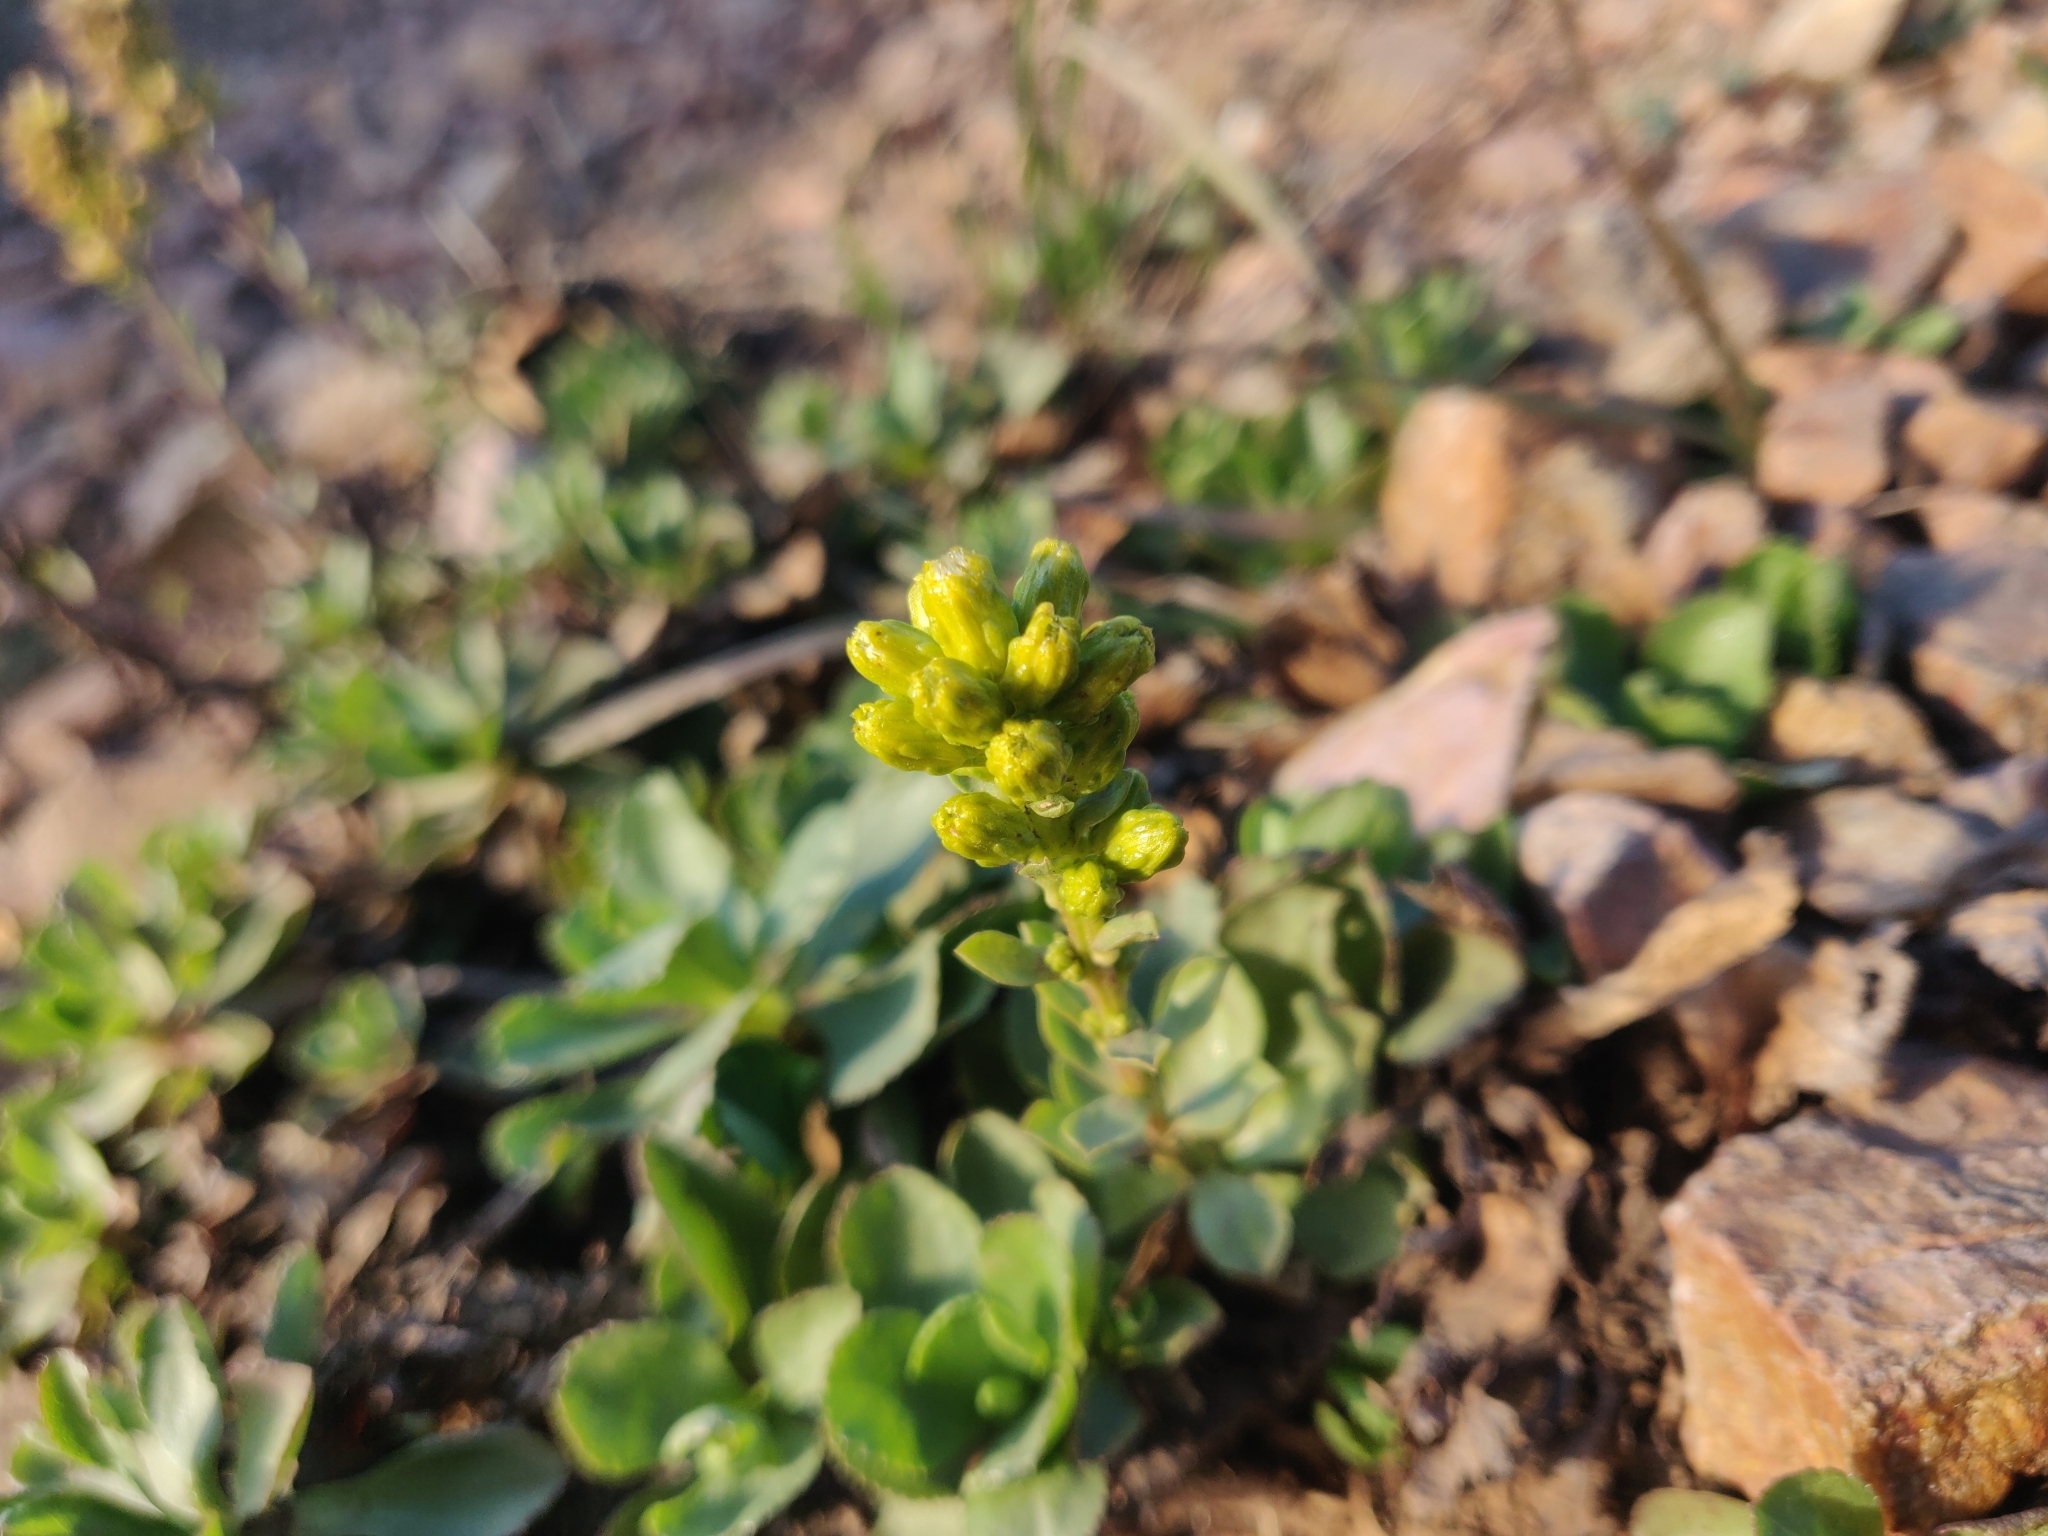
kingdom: Plantae
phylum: Tracheophyta
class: Magnoliopsida
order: Asterales
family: Asteraceae
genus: Solidago
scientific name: Solidago spathulata
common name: Coast goldenrod
